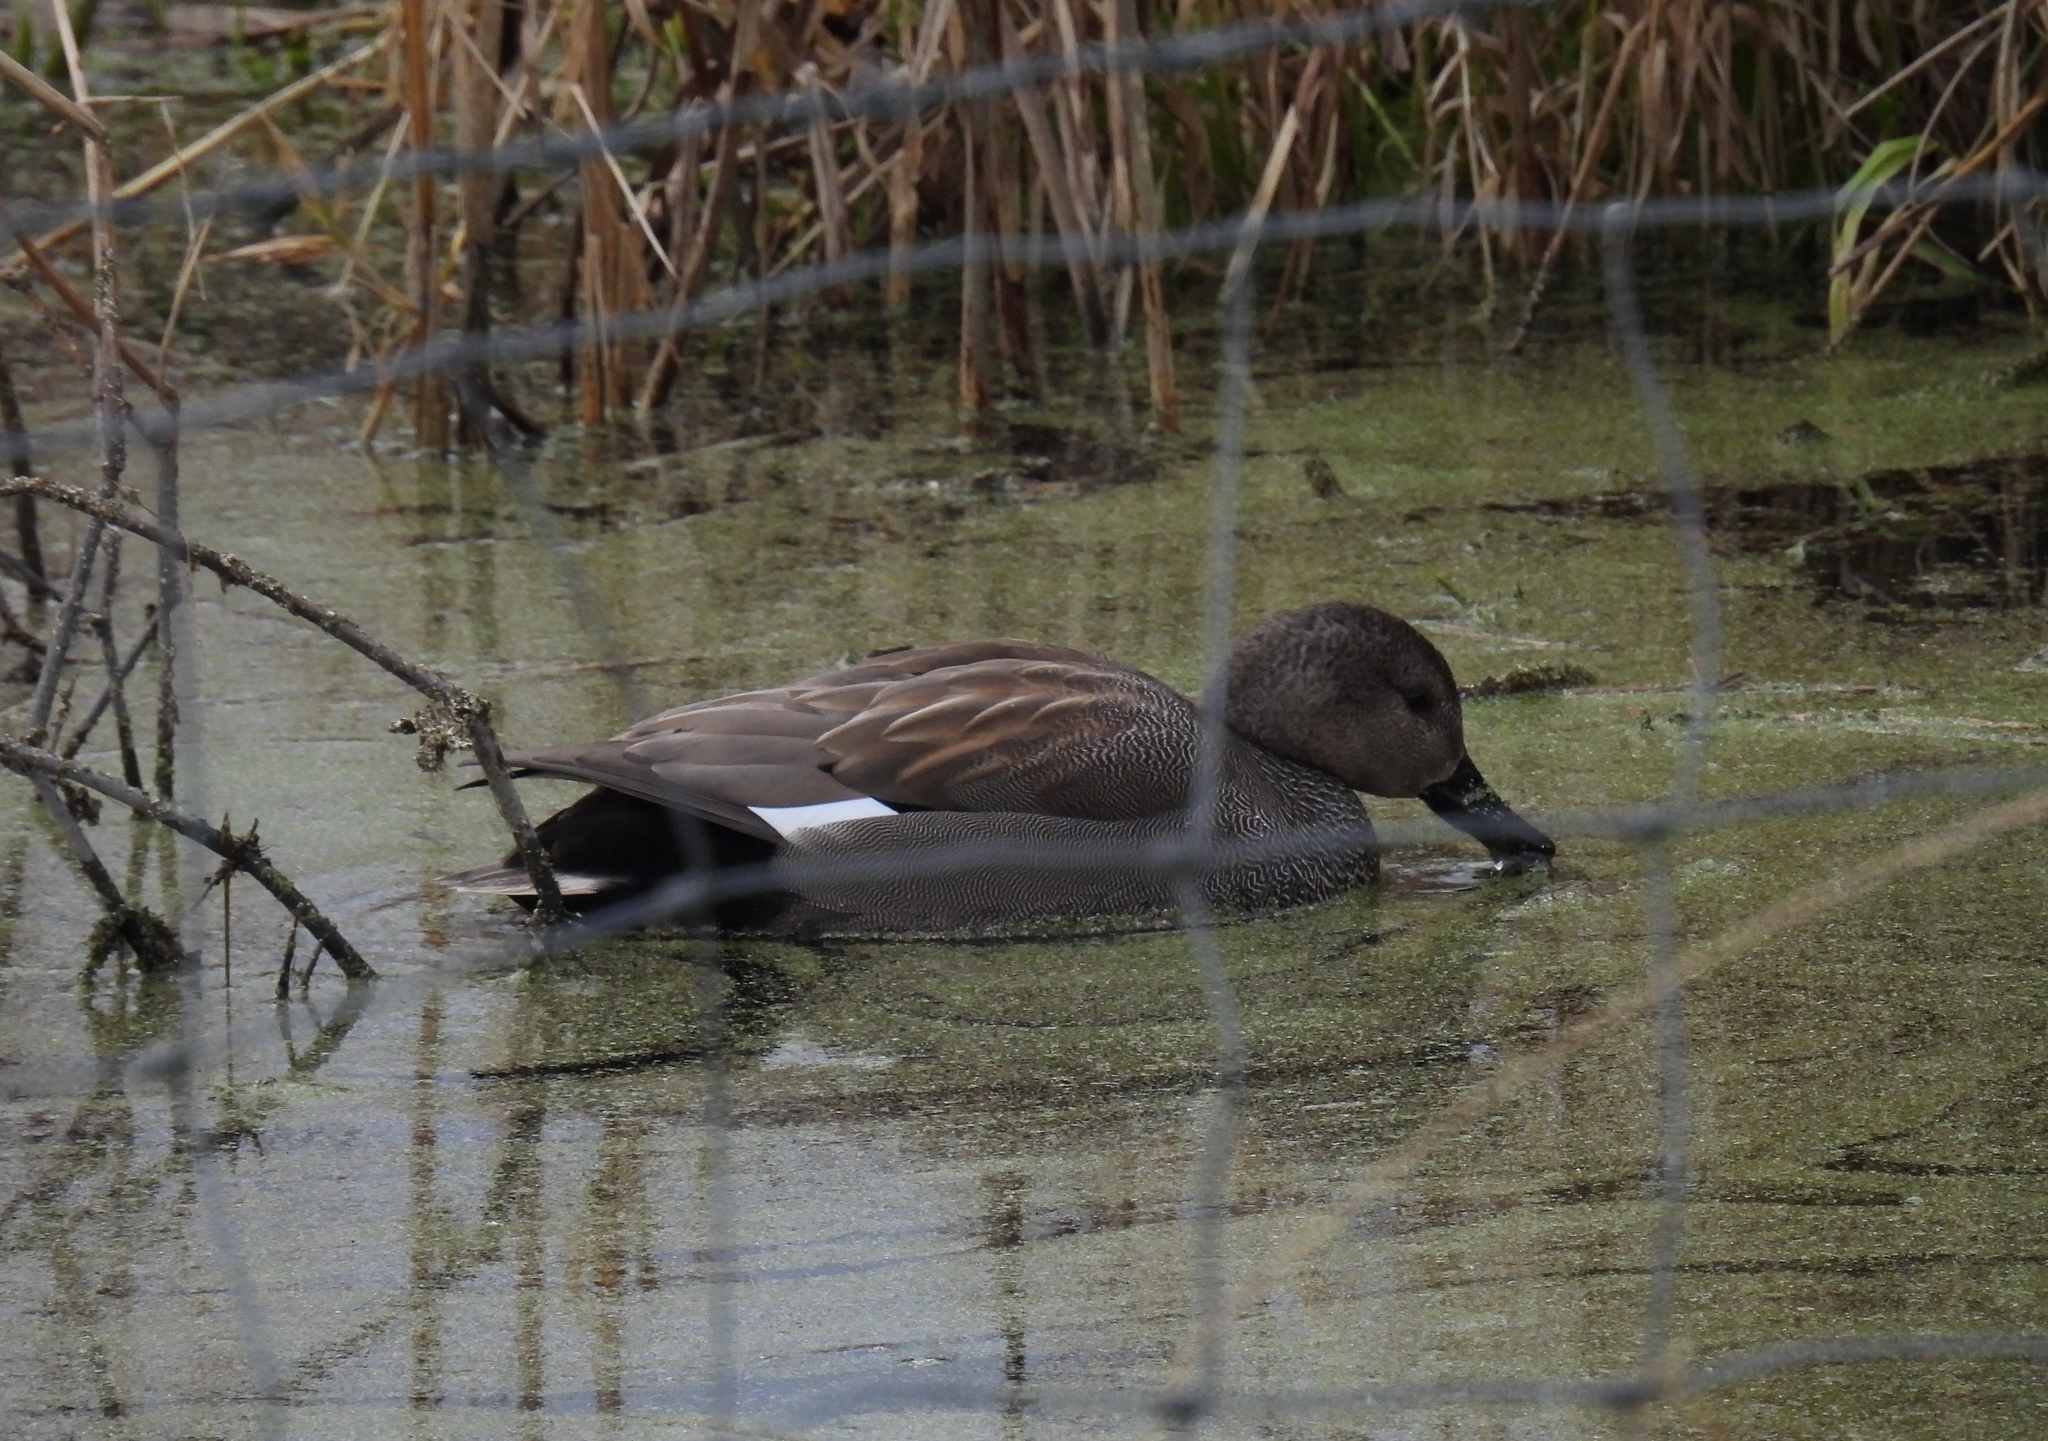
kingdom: Animalia
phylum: Chordata
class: Aves
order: Anseriformes
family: Anatidae
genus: Mareca
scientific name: Mareca strepera
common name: Gadwall
